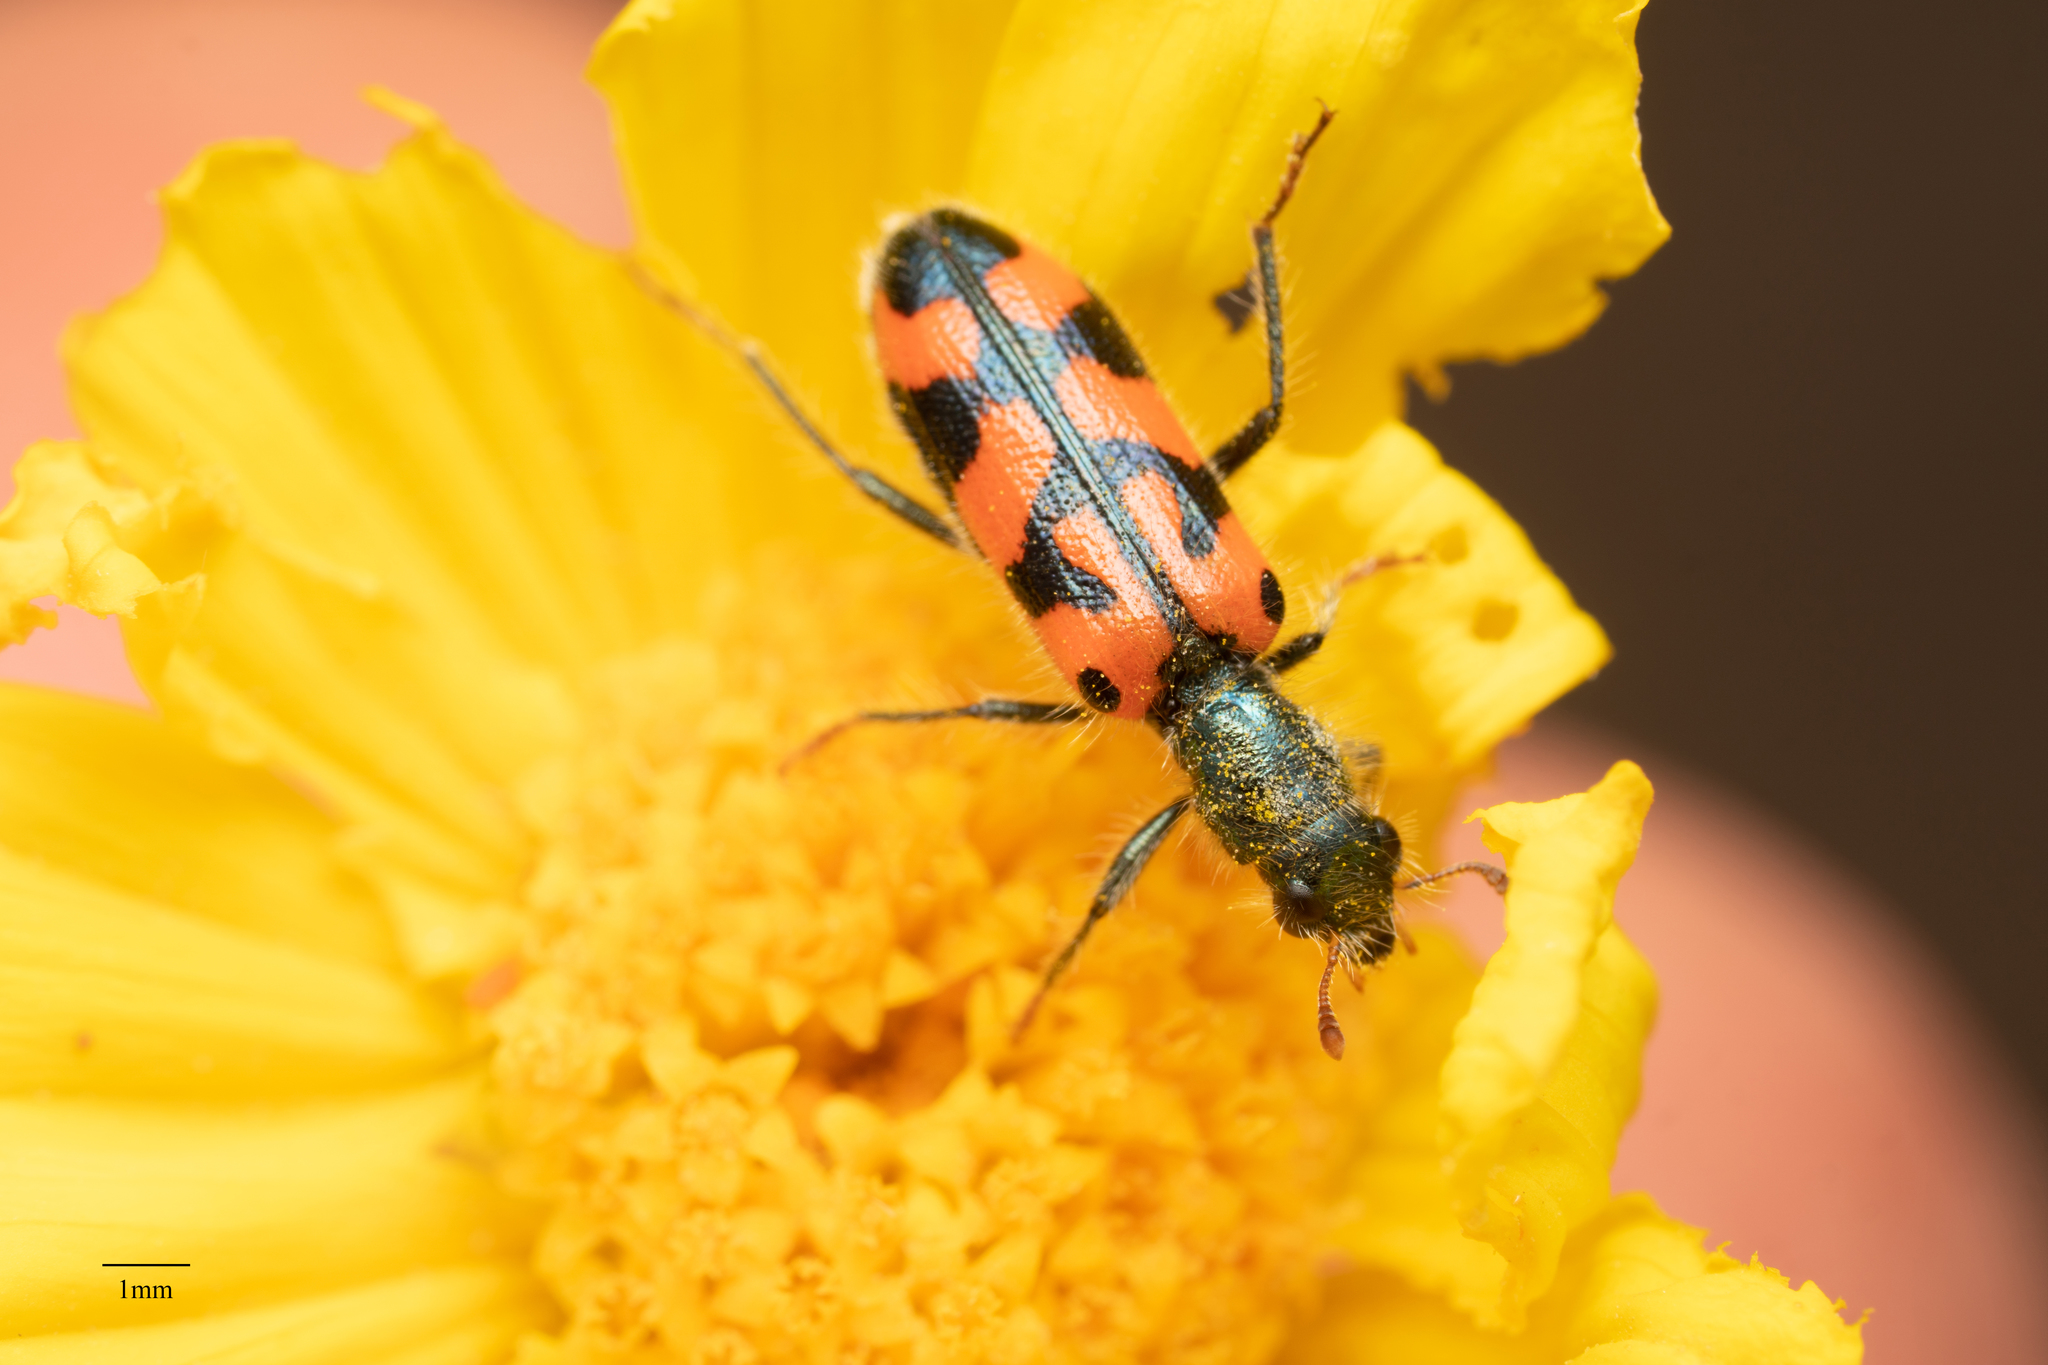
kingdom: Animalia
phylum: Arthropoda
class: Insecta
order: Coleoptera
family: Cleridae
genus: Trichodes
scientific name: Trichodes ornatus
